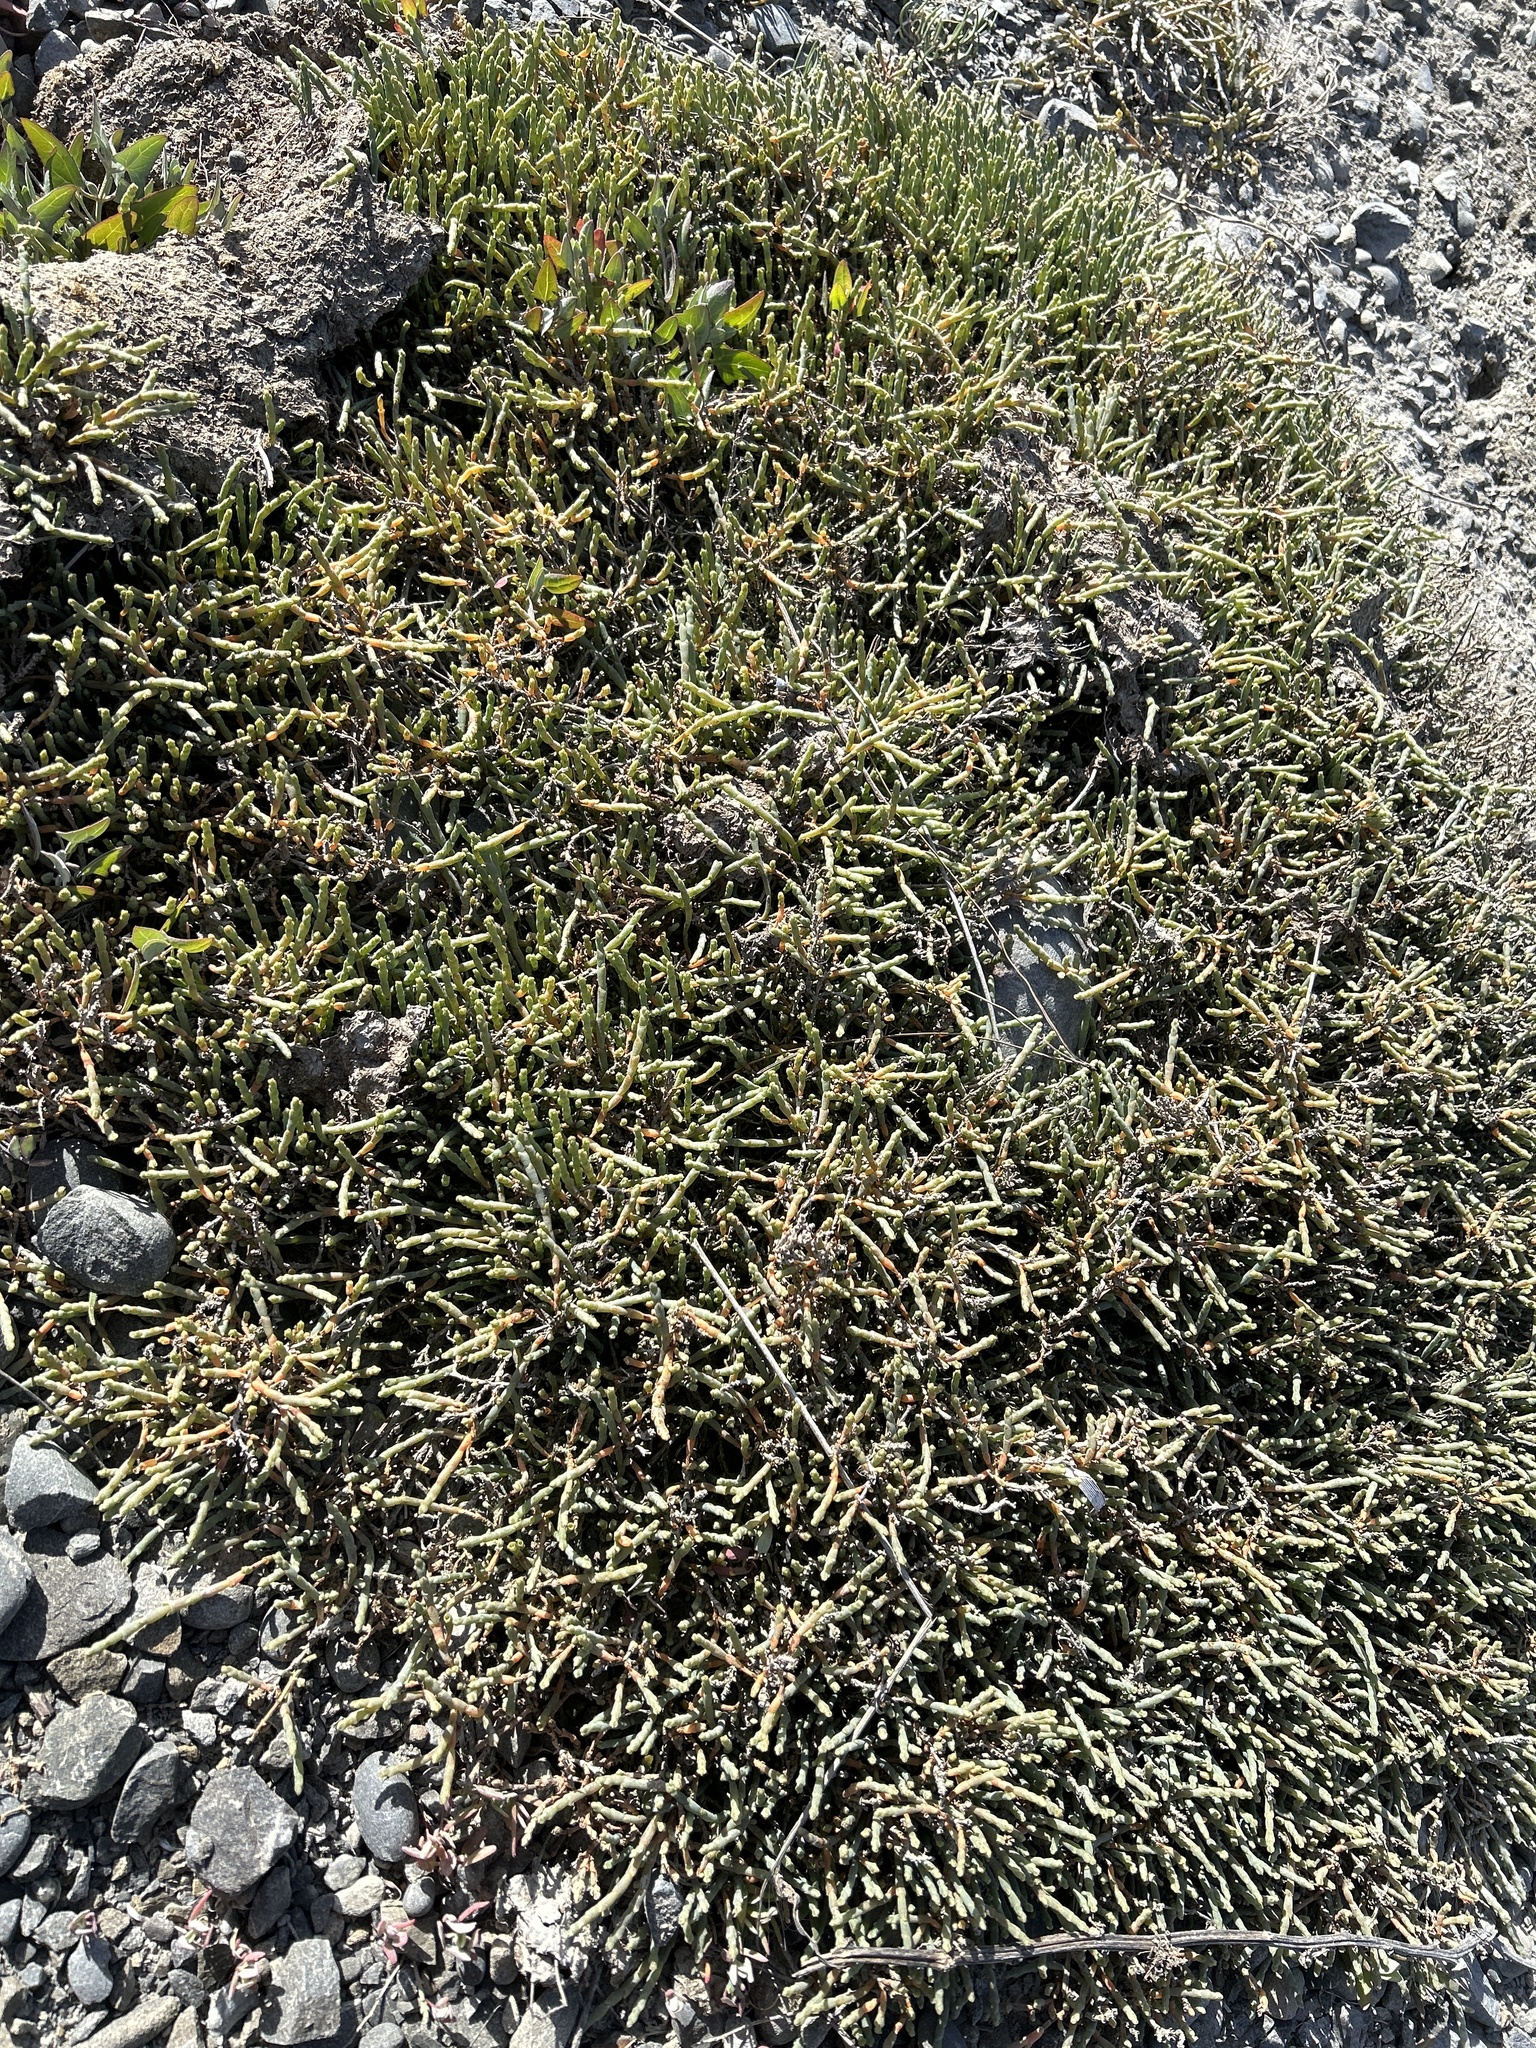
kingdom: Plantae
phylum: Tracheophyta
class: Magnoliopsida
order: Caryophyllales
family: Amaranthaceae
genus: Salicornia
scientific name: Salicornia quinqueflora
